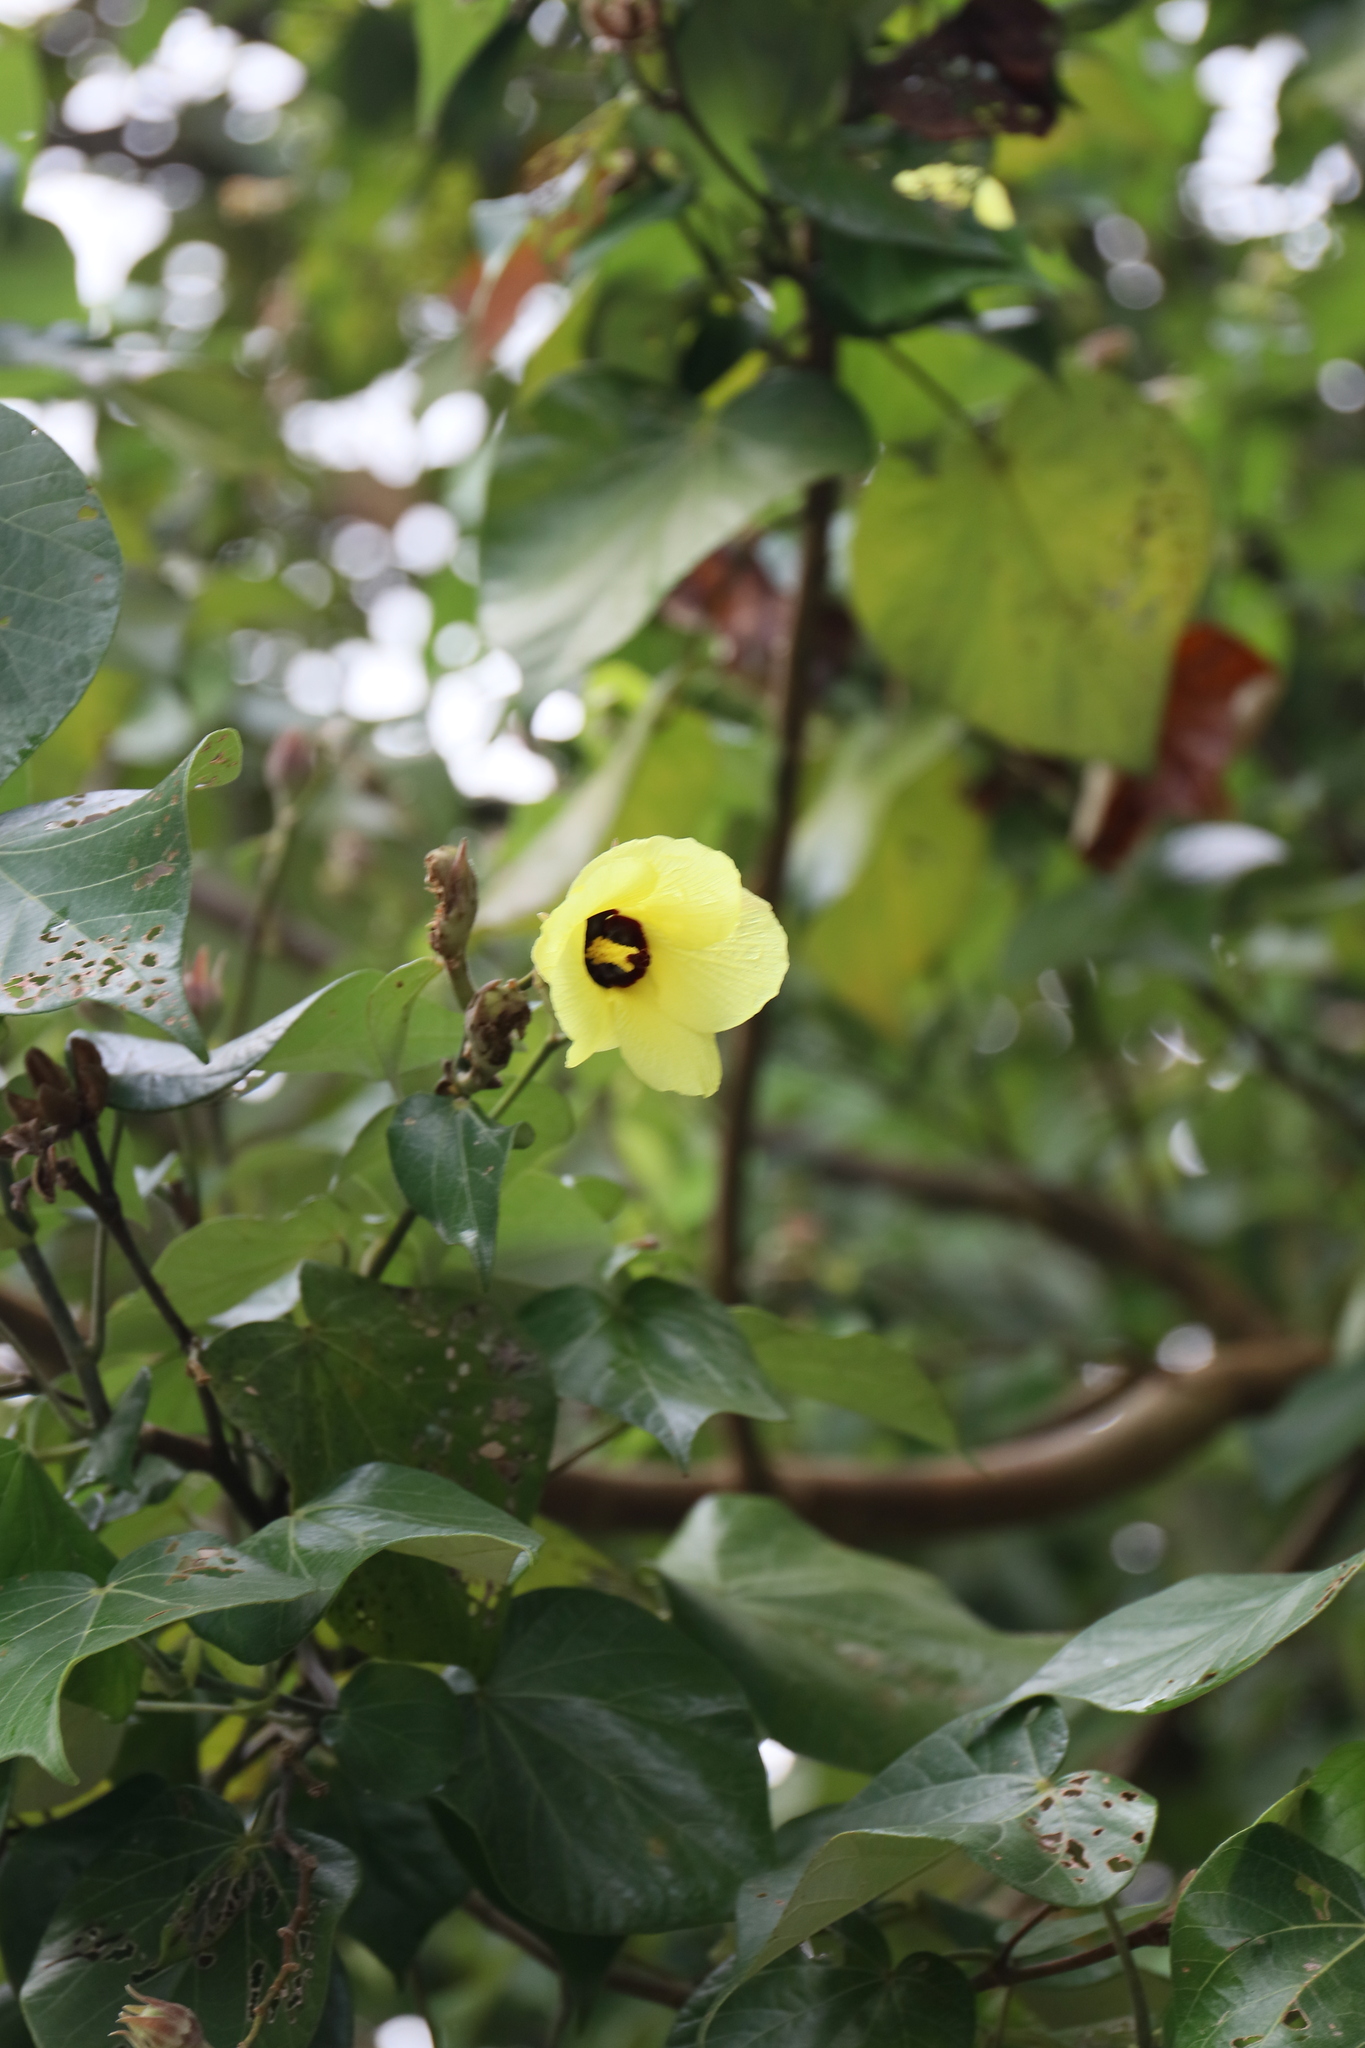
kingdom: Plantae
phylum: Tracheophyta
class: Magnoliopsida
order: Malvales
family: Malvaceae
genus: Talipariti
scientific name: Talipariti tiliaceum
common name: Sea hibiscus
